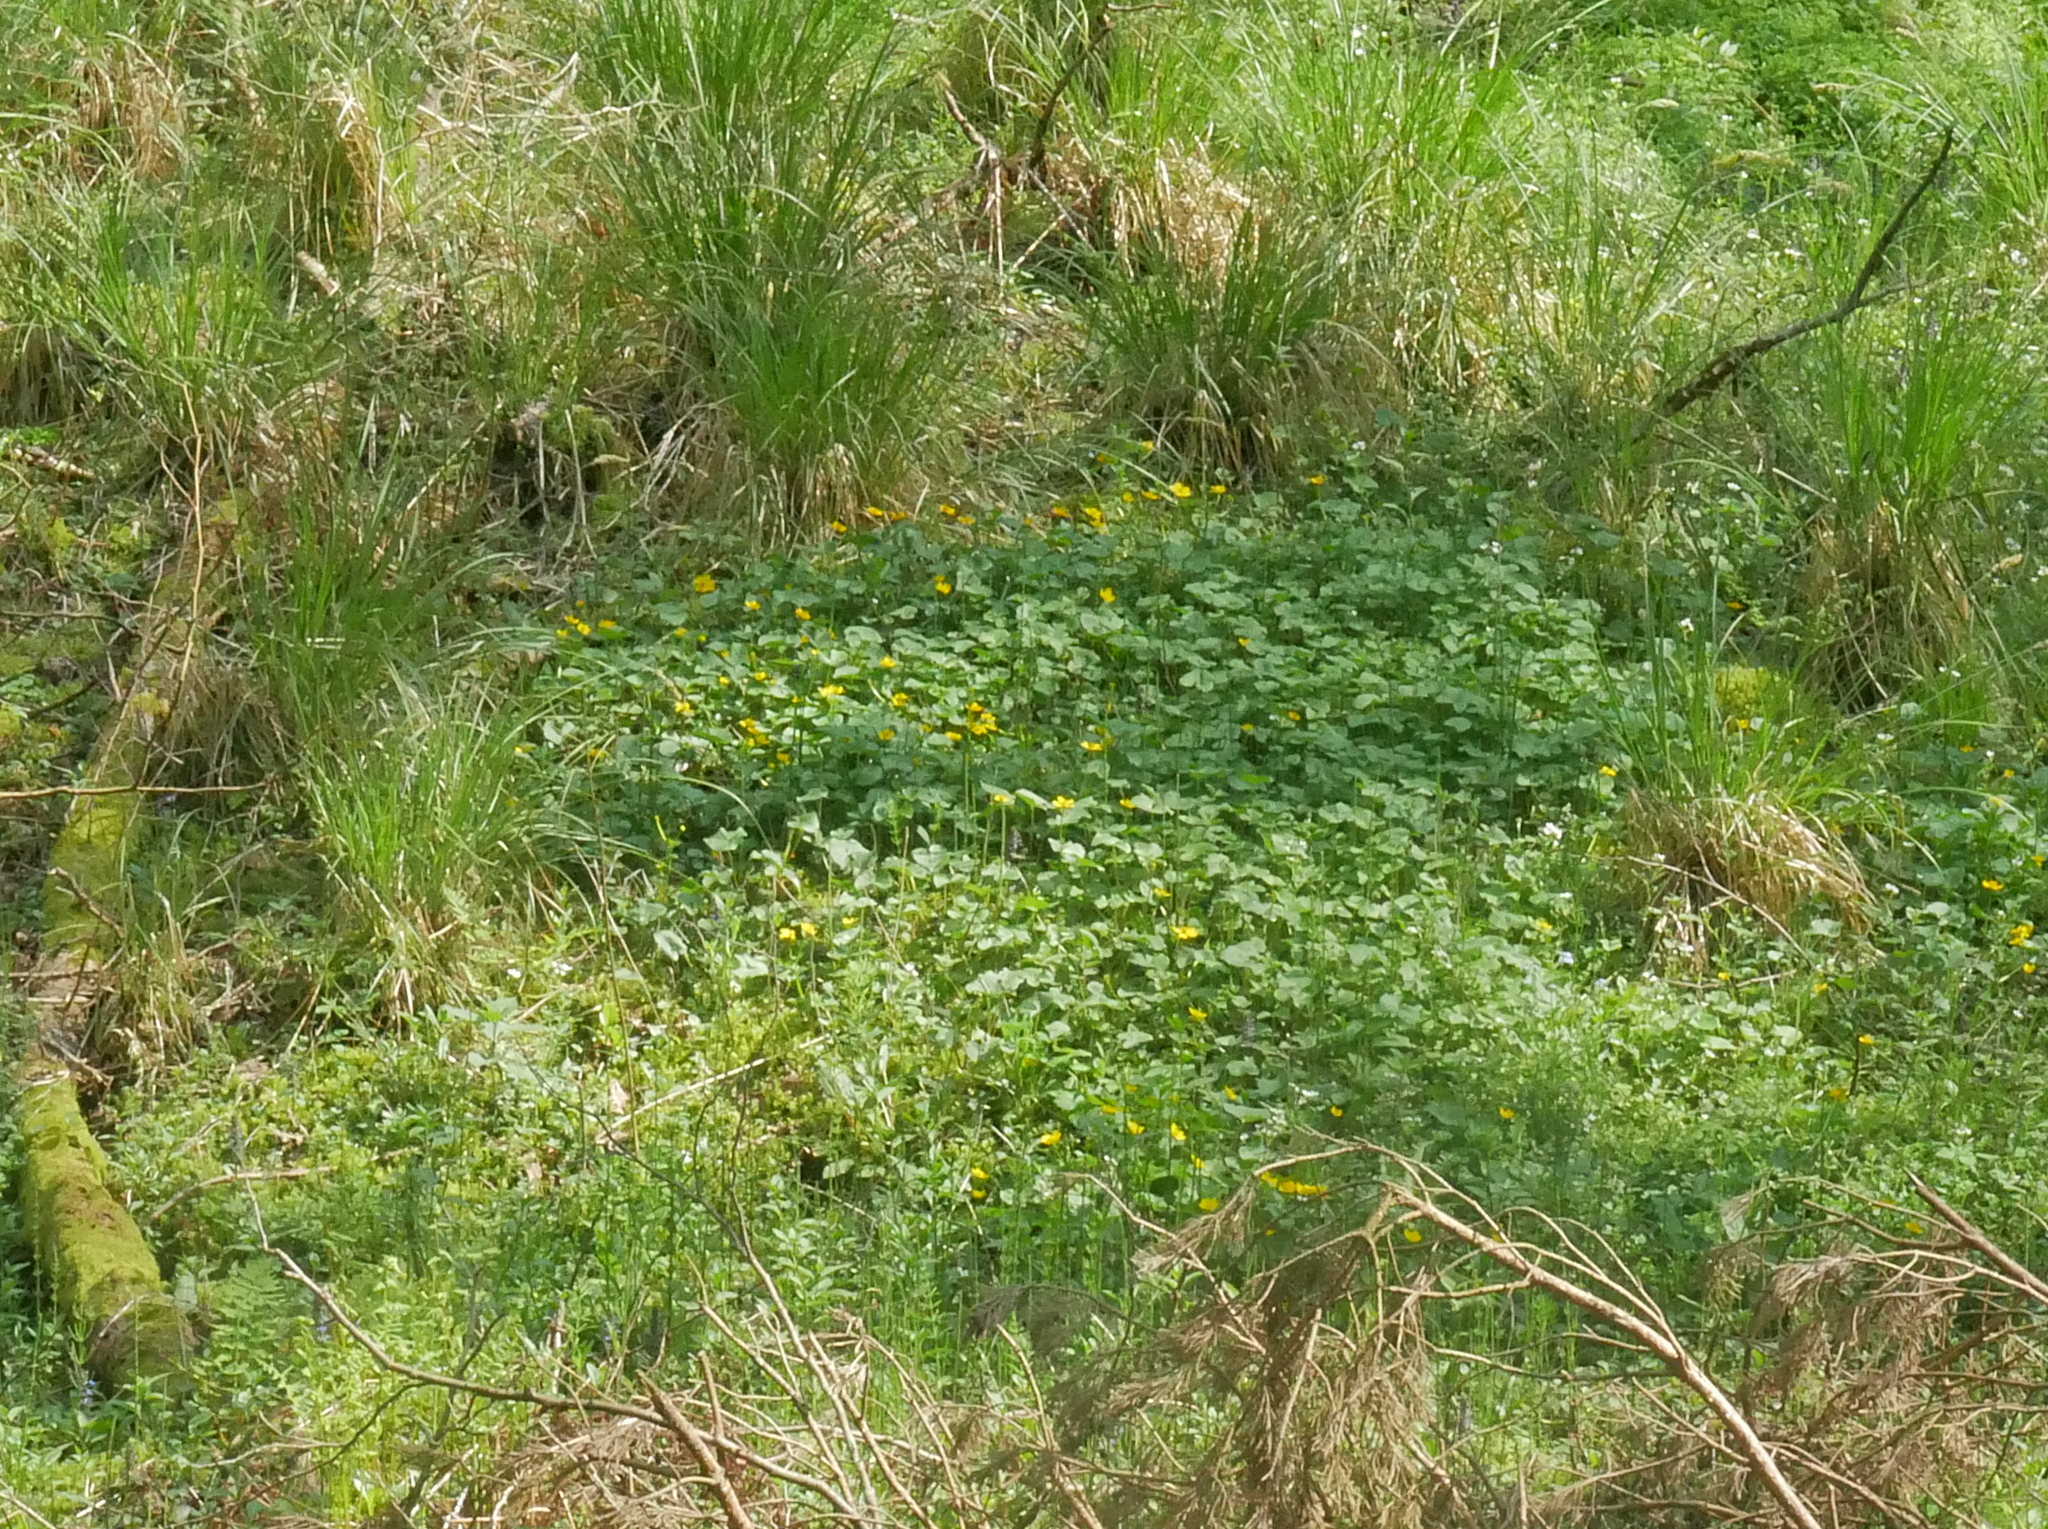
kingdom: Plantae
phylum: Tracheophyta
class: Magnoliopsida
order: Ranunculales
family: Ranunculaceae
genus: Caltha
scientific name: Caltha palustris
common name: Marsh marigold
